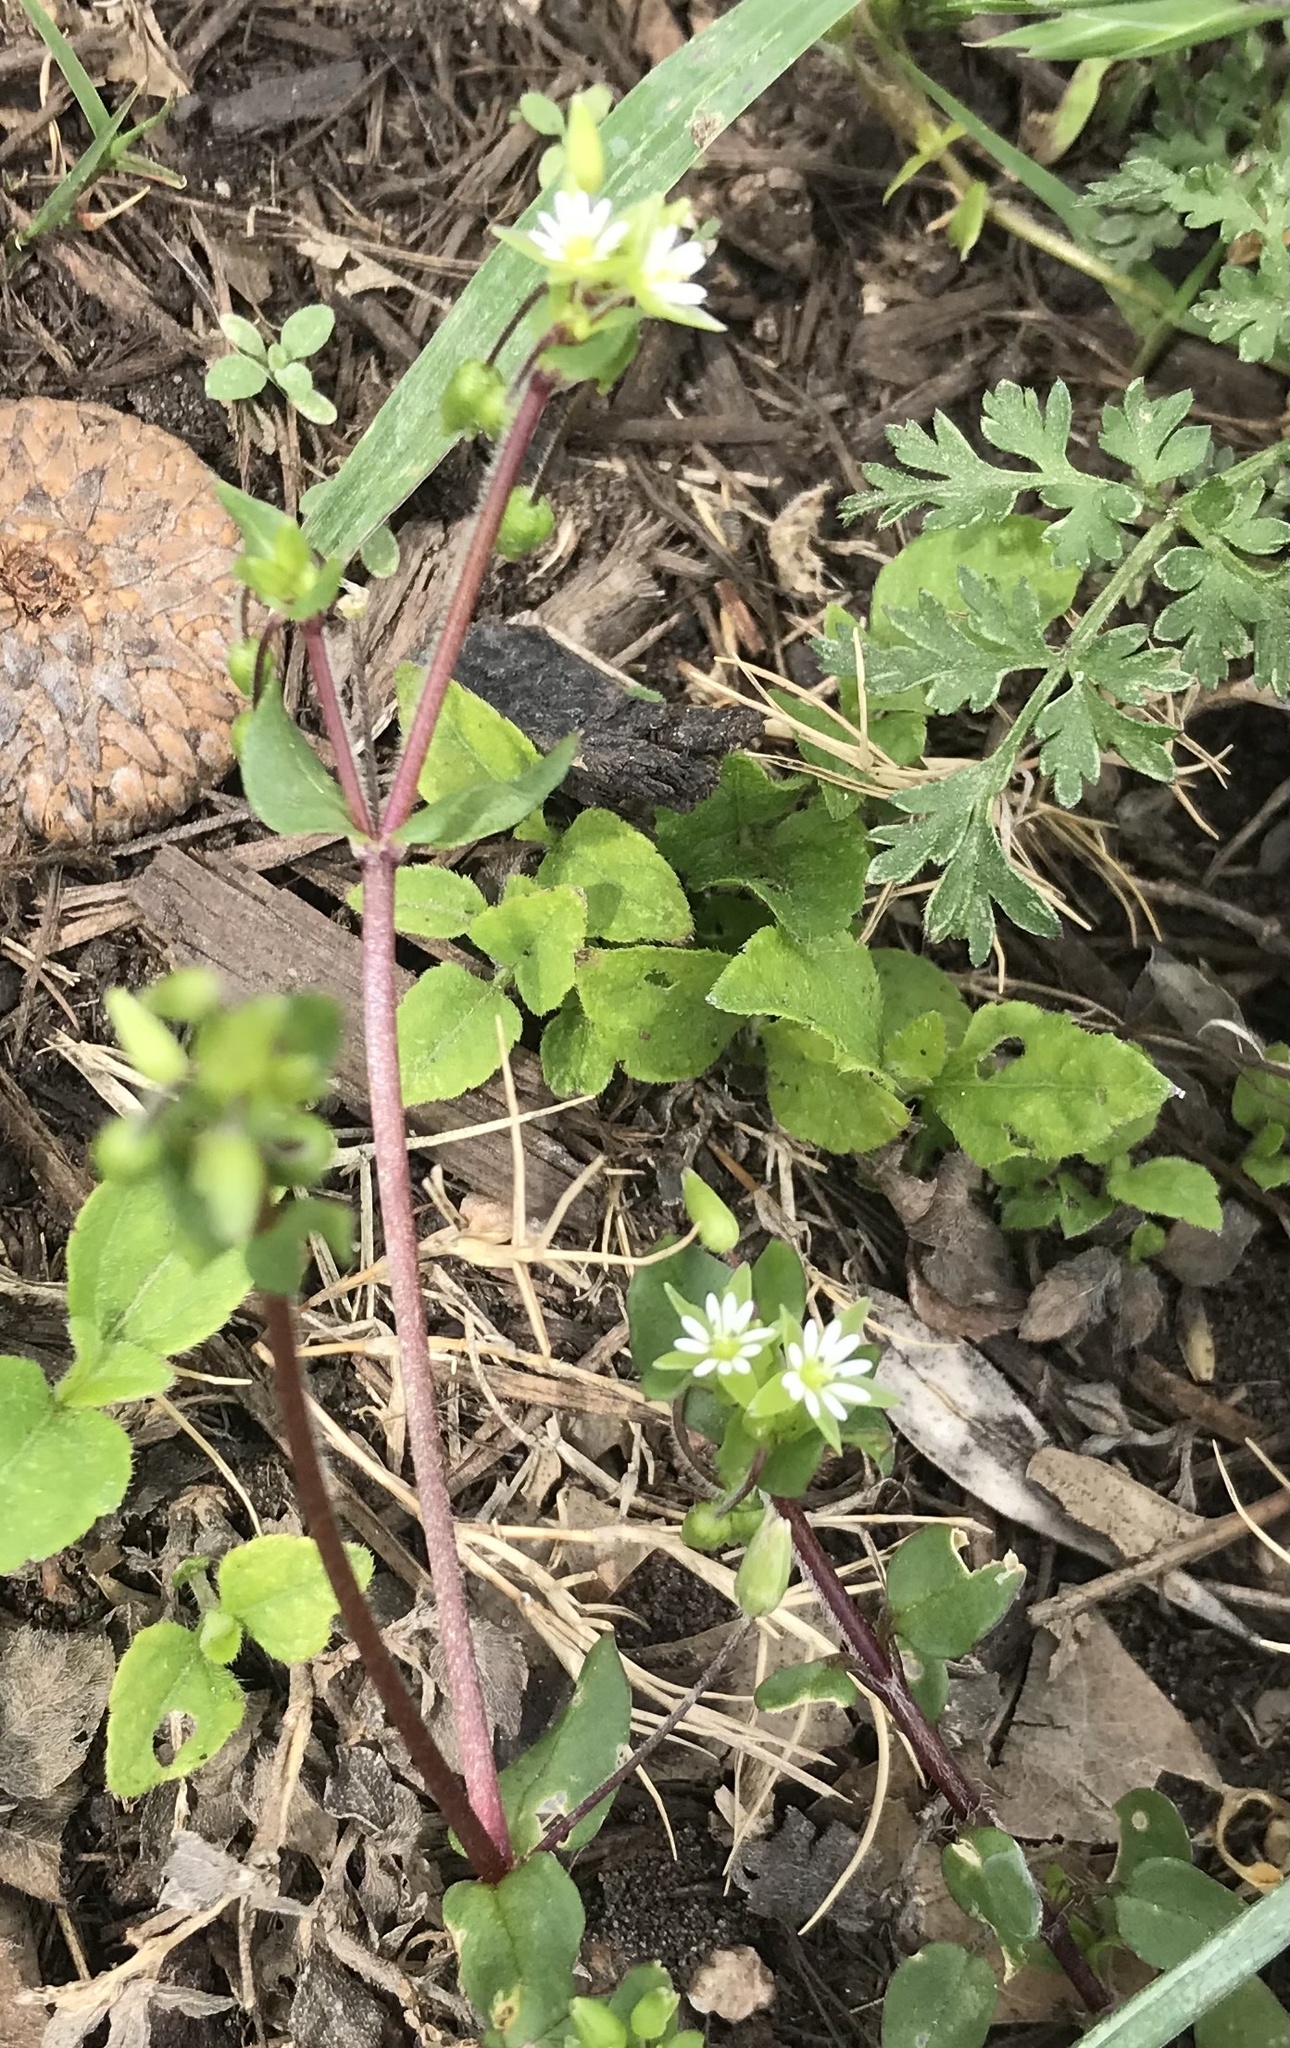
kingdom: Plantae
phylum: Tracheophyta
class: Magnoliopsida
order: Caryophyllales
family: Caryophyllaceae
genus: Stellaria
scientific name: Stellaria media
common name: Common chickweed
